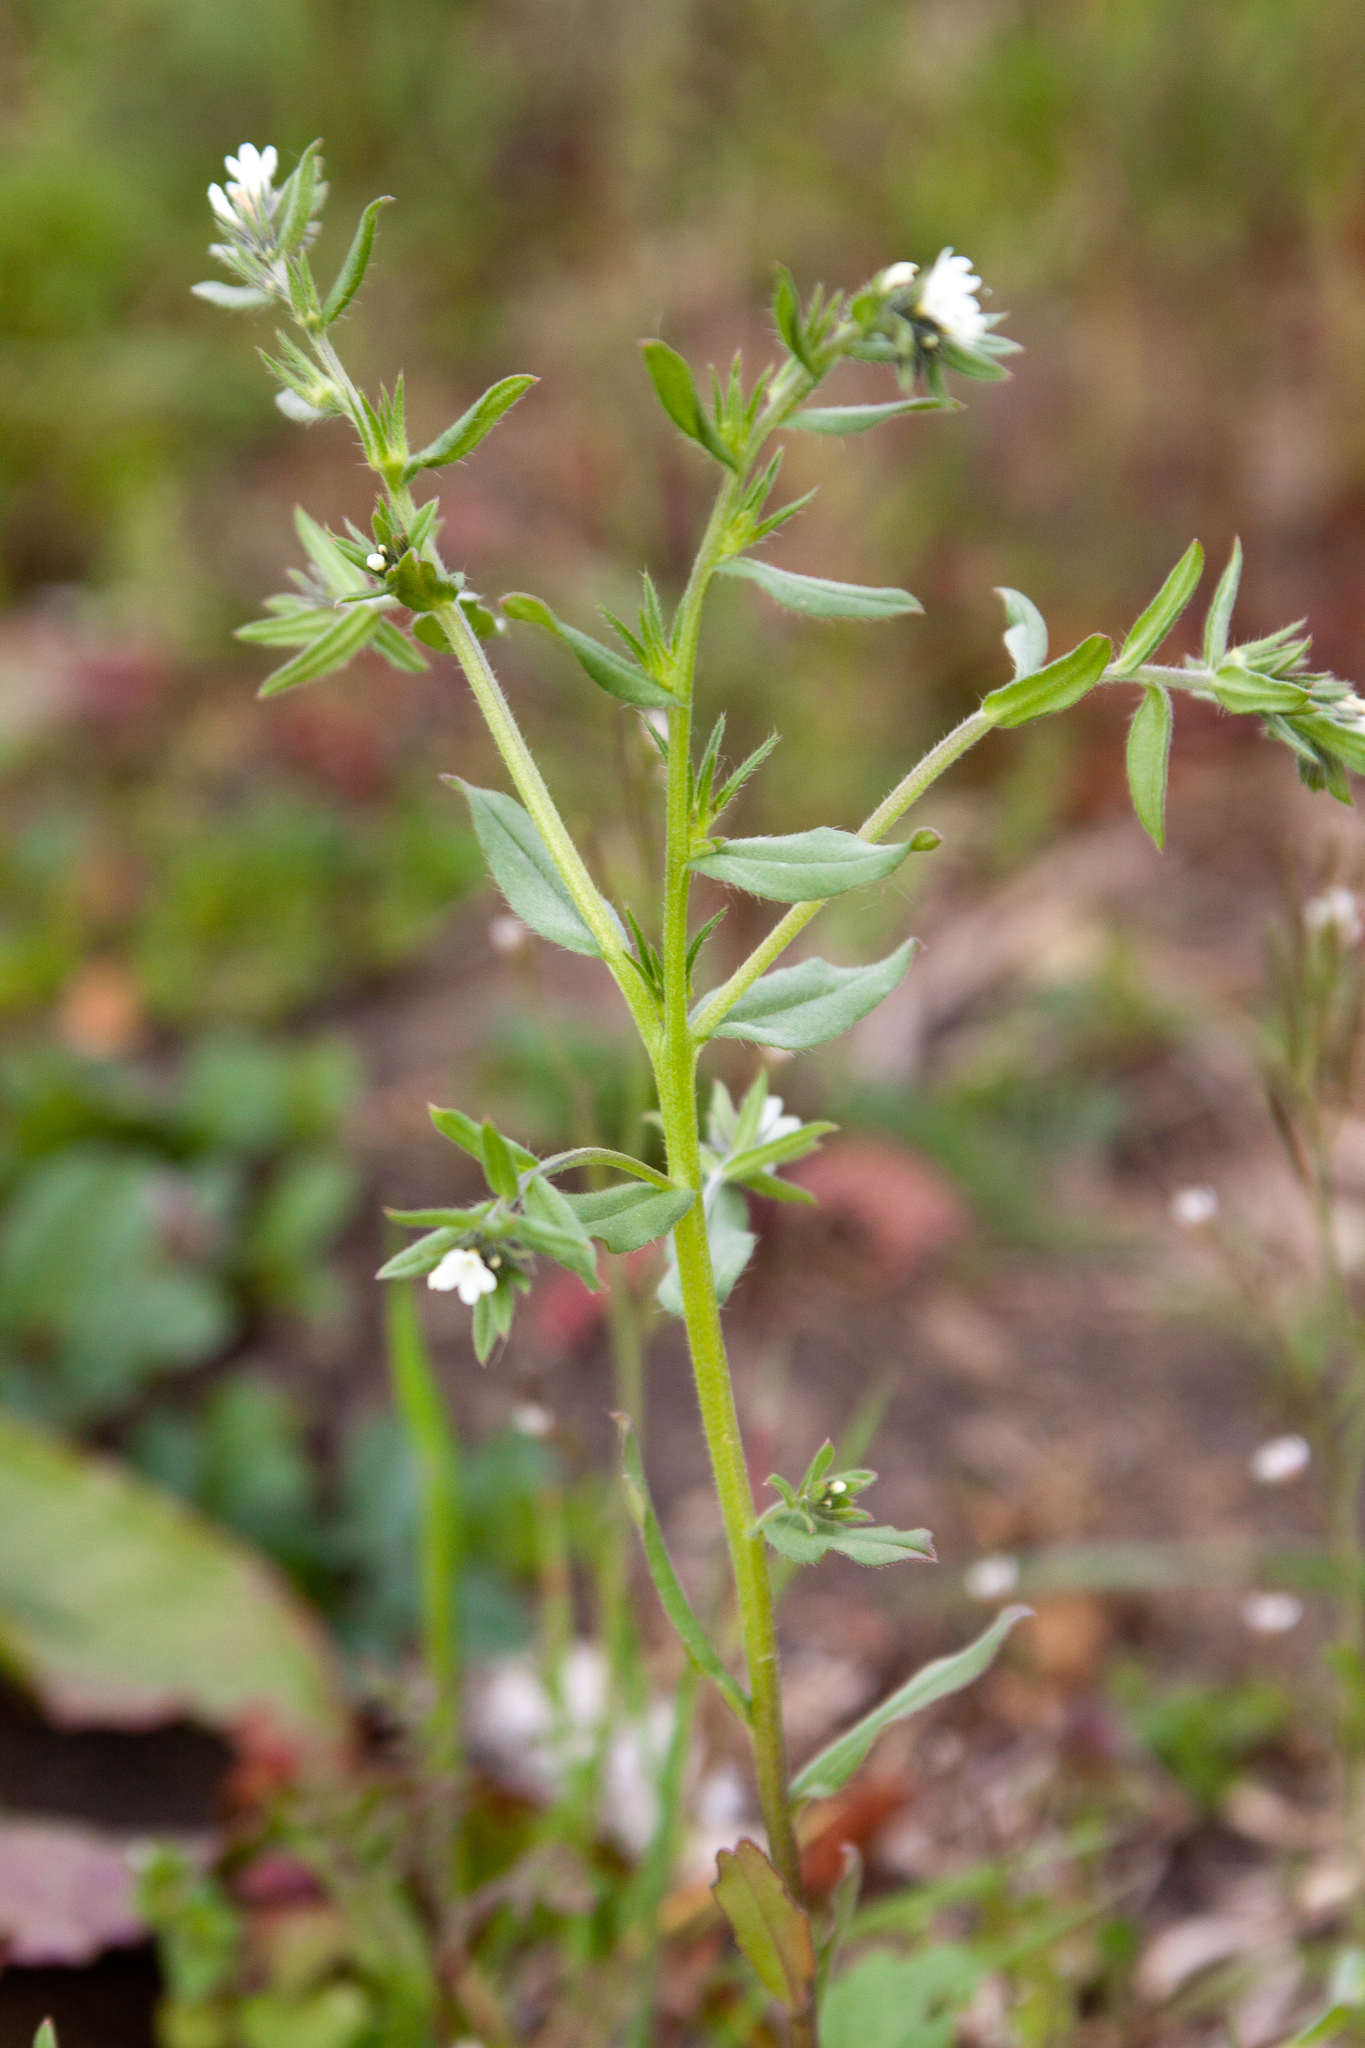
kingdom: Plantae
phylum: Tracheophyta
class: Magnoliopsida
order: Boraginales
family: Boraginaceae
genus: Buglossoides
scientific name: Buglossoides arvensis
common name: Corn gromwell
